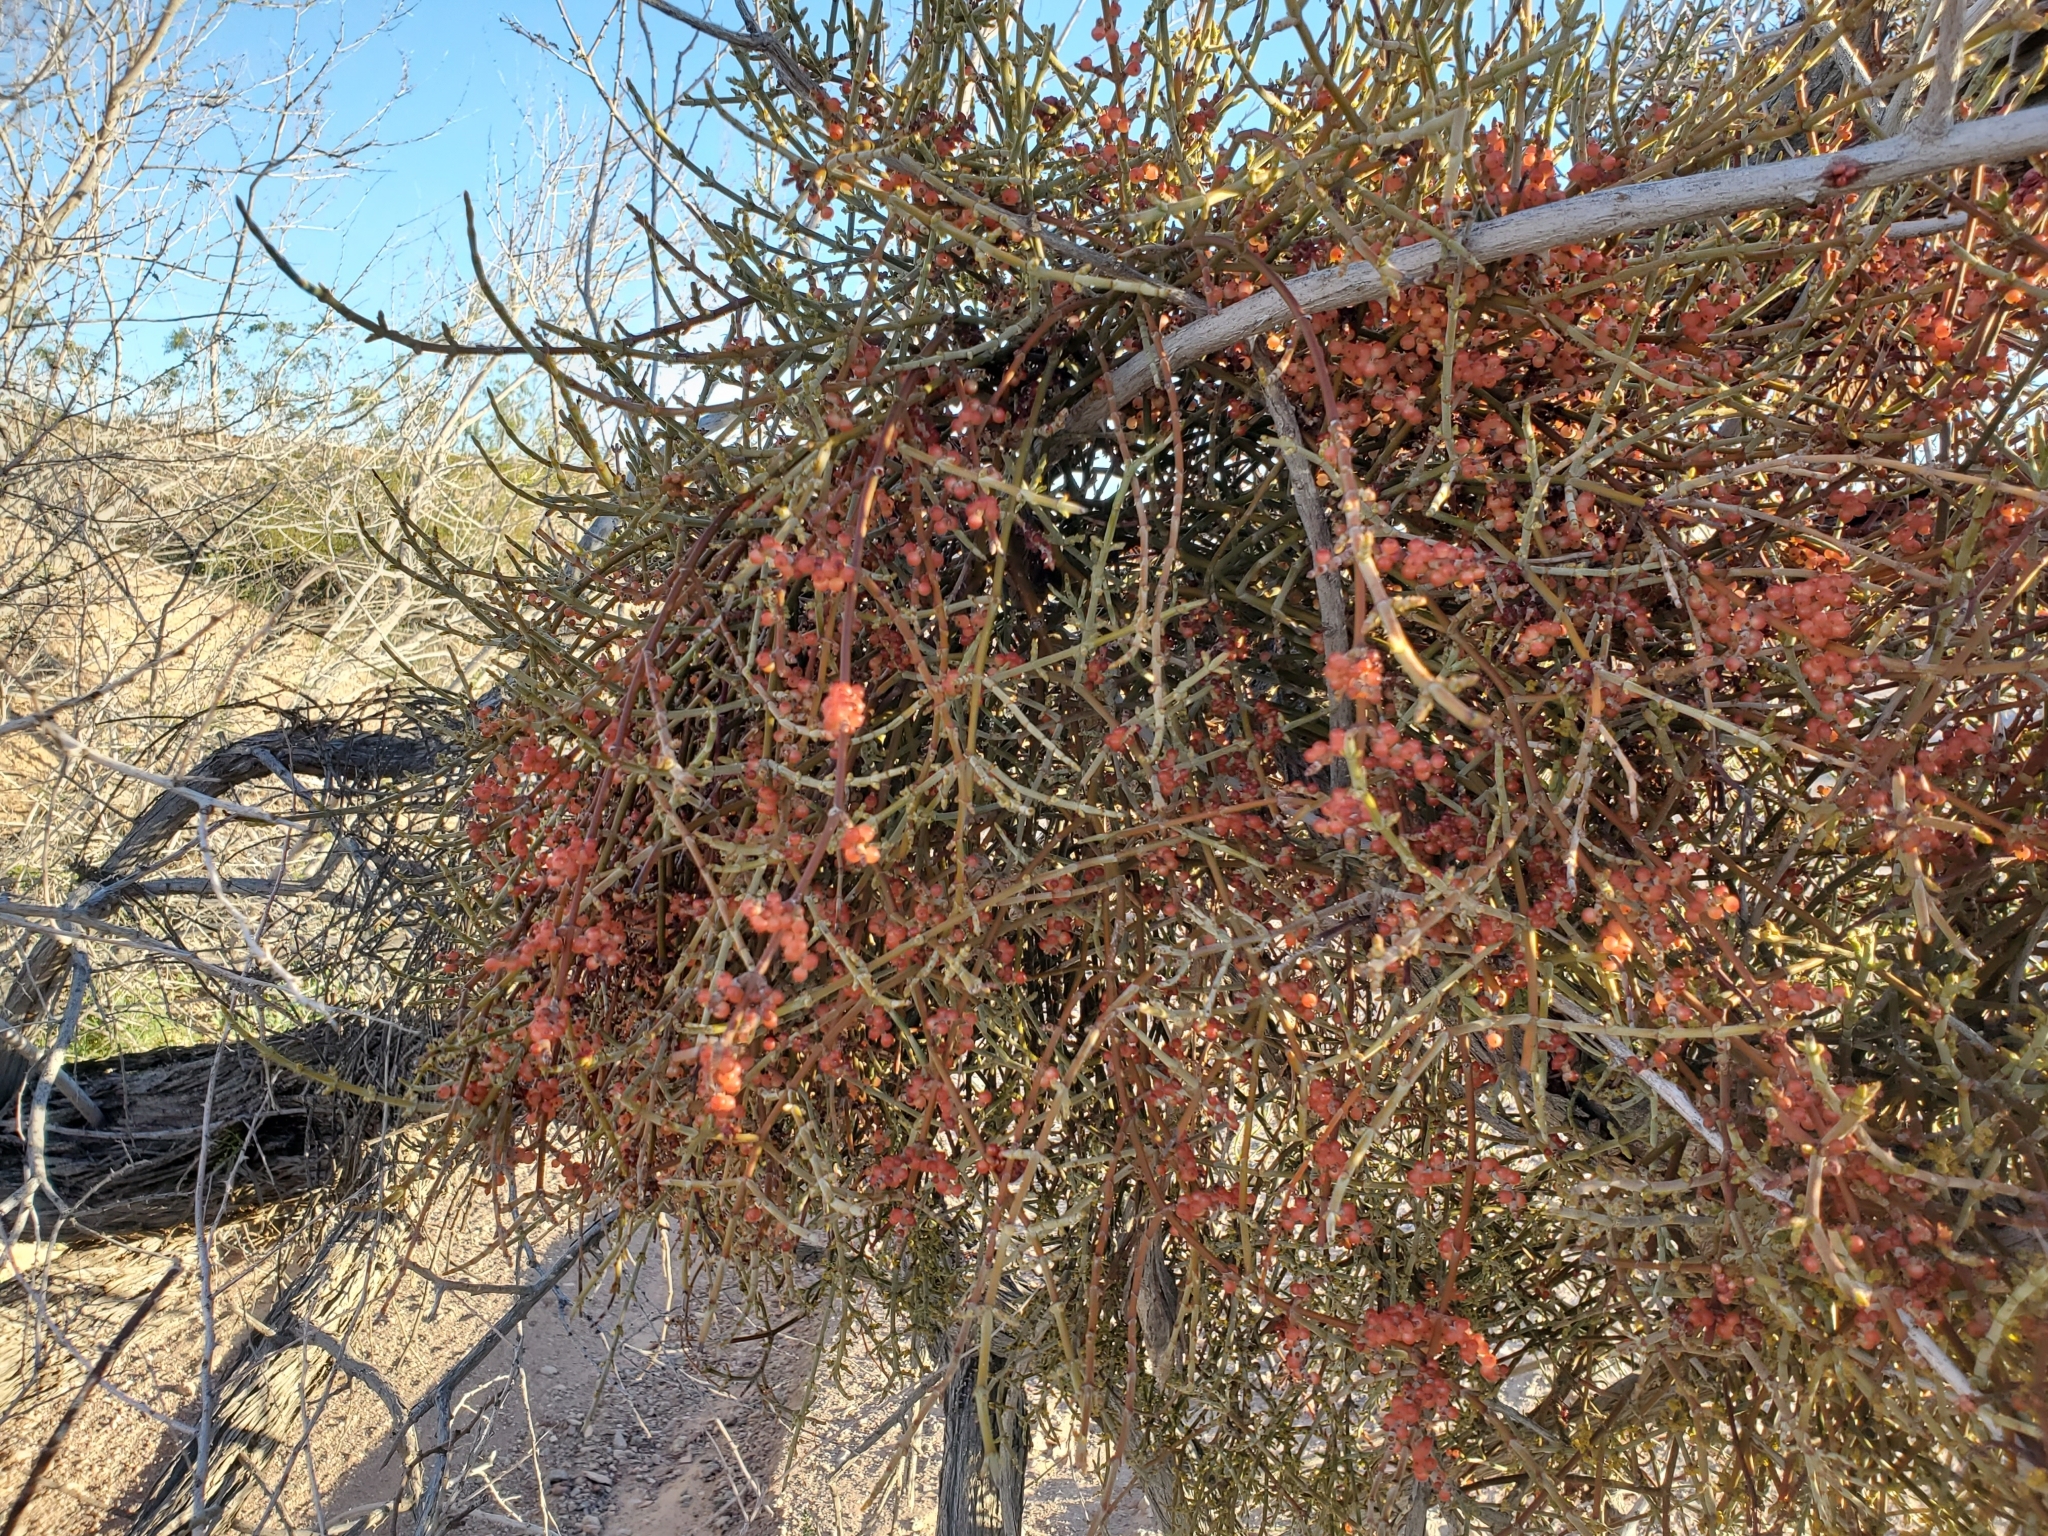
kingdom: Plantae
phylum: Tracheophyta
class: Magnoliopsida
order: Santalales
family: Viscaceae
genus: Phoradendron
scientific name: Phoradendron californicum
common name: Acacia mistletoe
